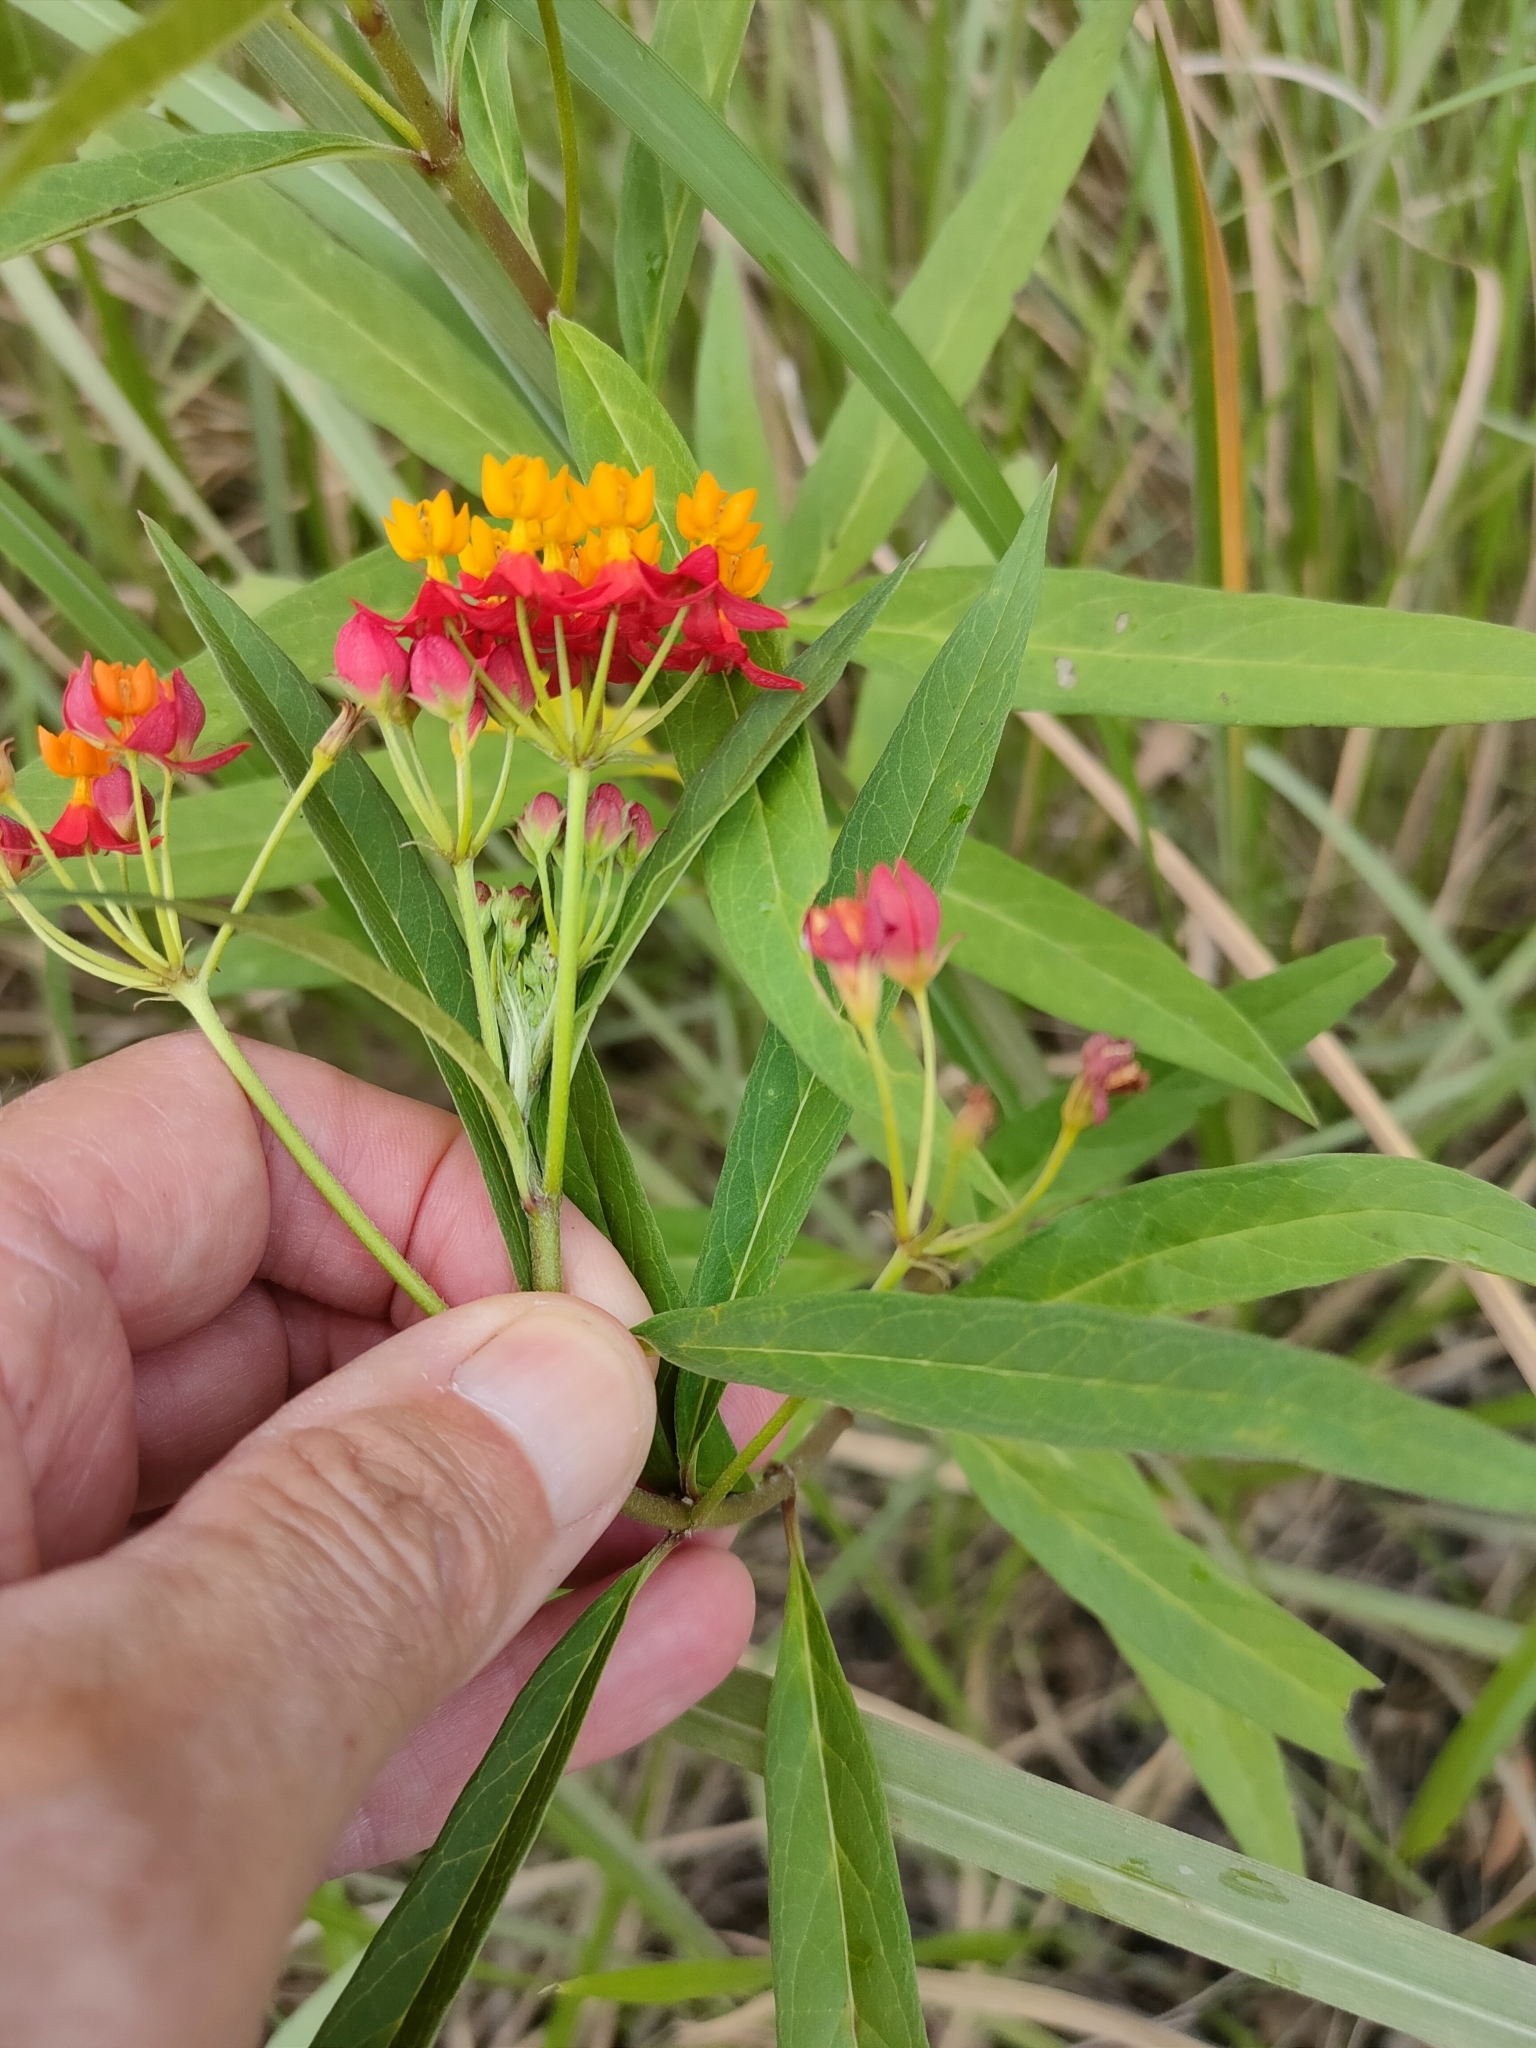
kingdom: Plantae
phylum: Tracheophyta
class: Magnoliopsida
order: Gentianales
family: Apocynaceae
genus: Asclepias
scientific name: Asclepias curassavica
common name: Bloodflower
